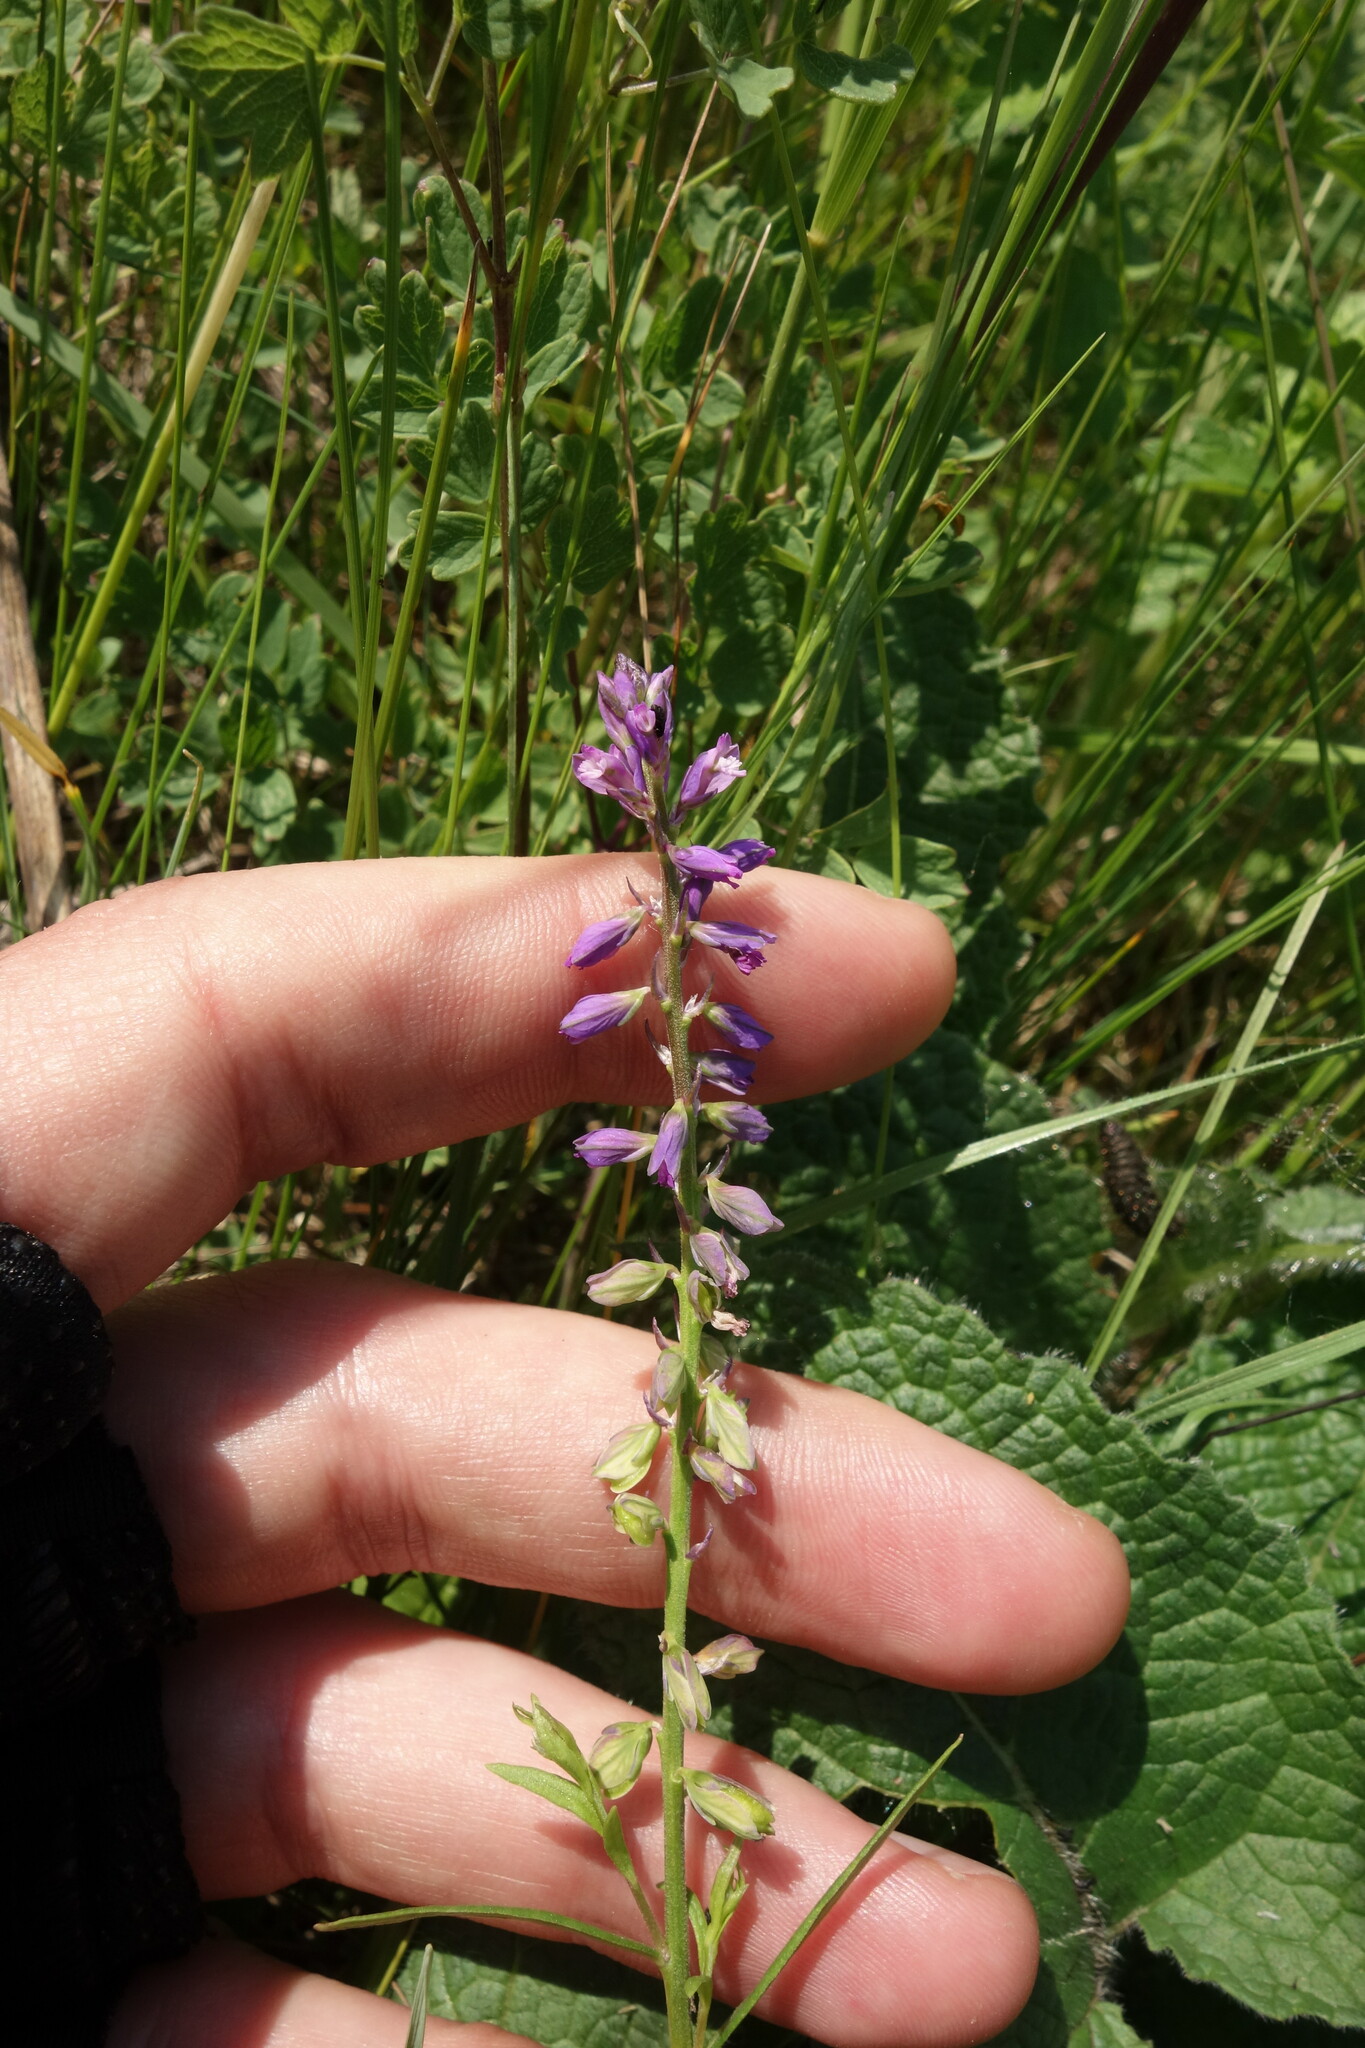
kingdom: Plantae
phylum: Tracheophyta
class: Magnoliopsida
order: Fabales
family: Polygalaceae
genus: Polygala
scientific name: Polygala comosa
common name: Tufted milkwort
